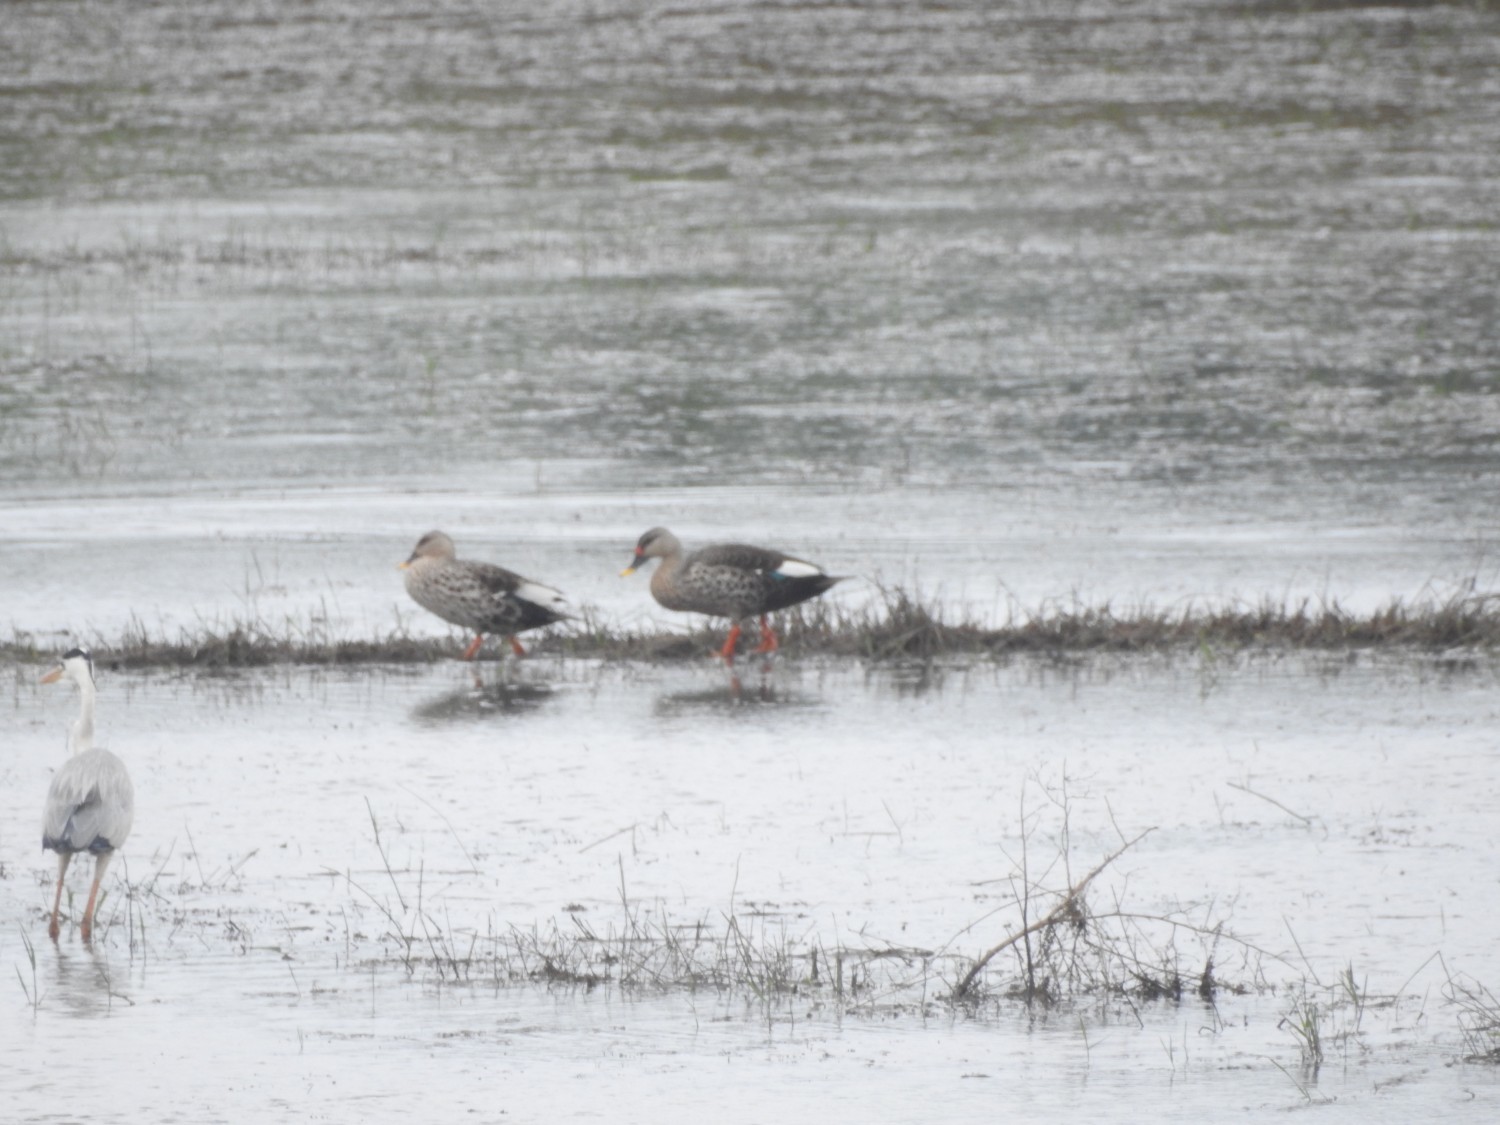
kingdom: Animalia
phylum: Chordata
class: Aves
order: Anseriformes
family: Anatidae
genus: Anas
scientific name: Anas poecilorhyncha
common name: Indian spot-billed duck
